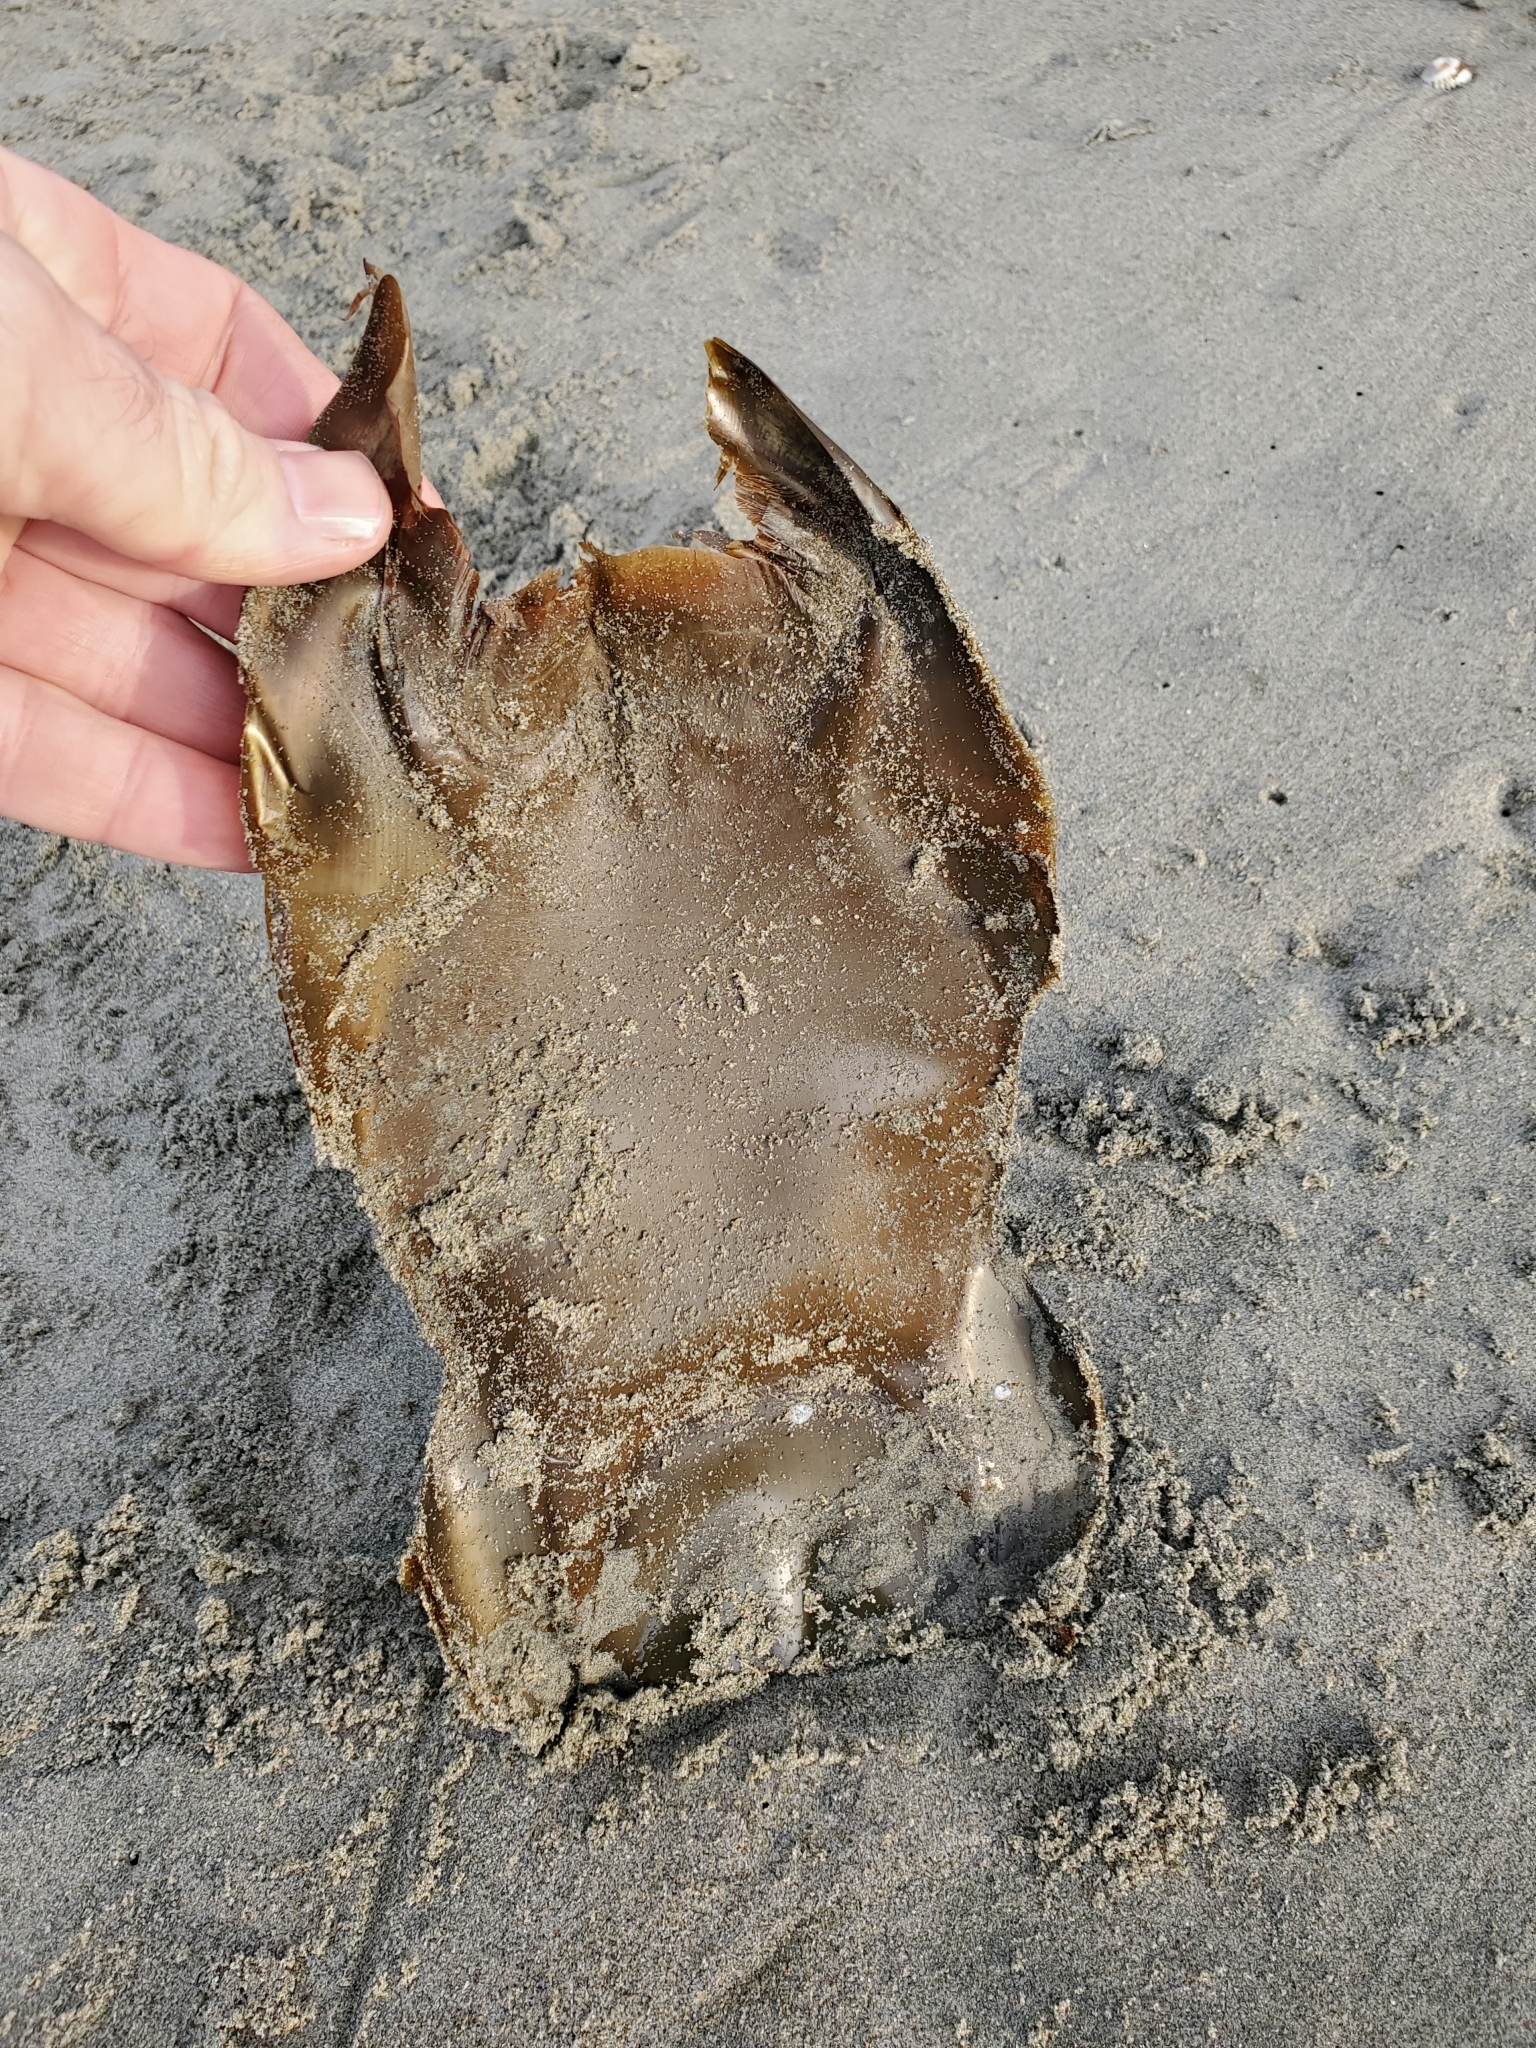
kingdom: Animalia
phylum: Chordata
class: Elasmobranchii
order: Rajiformes
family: Rajidae
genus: Beringraja
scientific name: Beringraja binoculata
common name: Big skate
